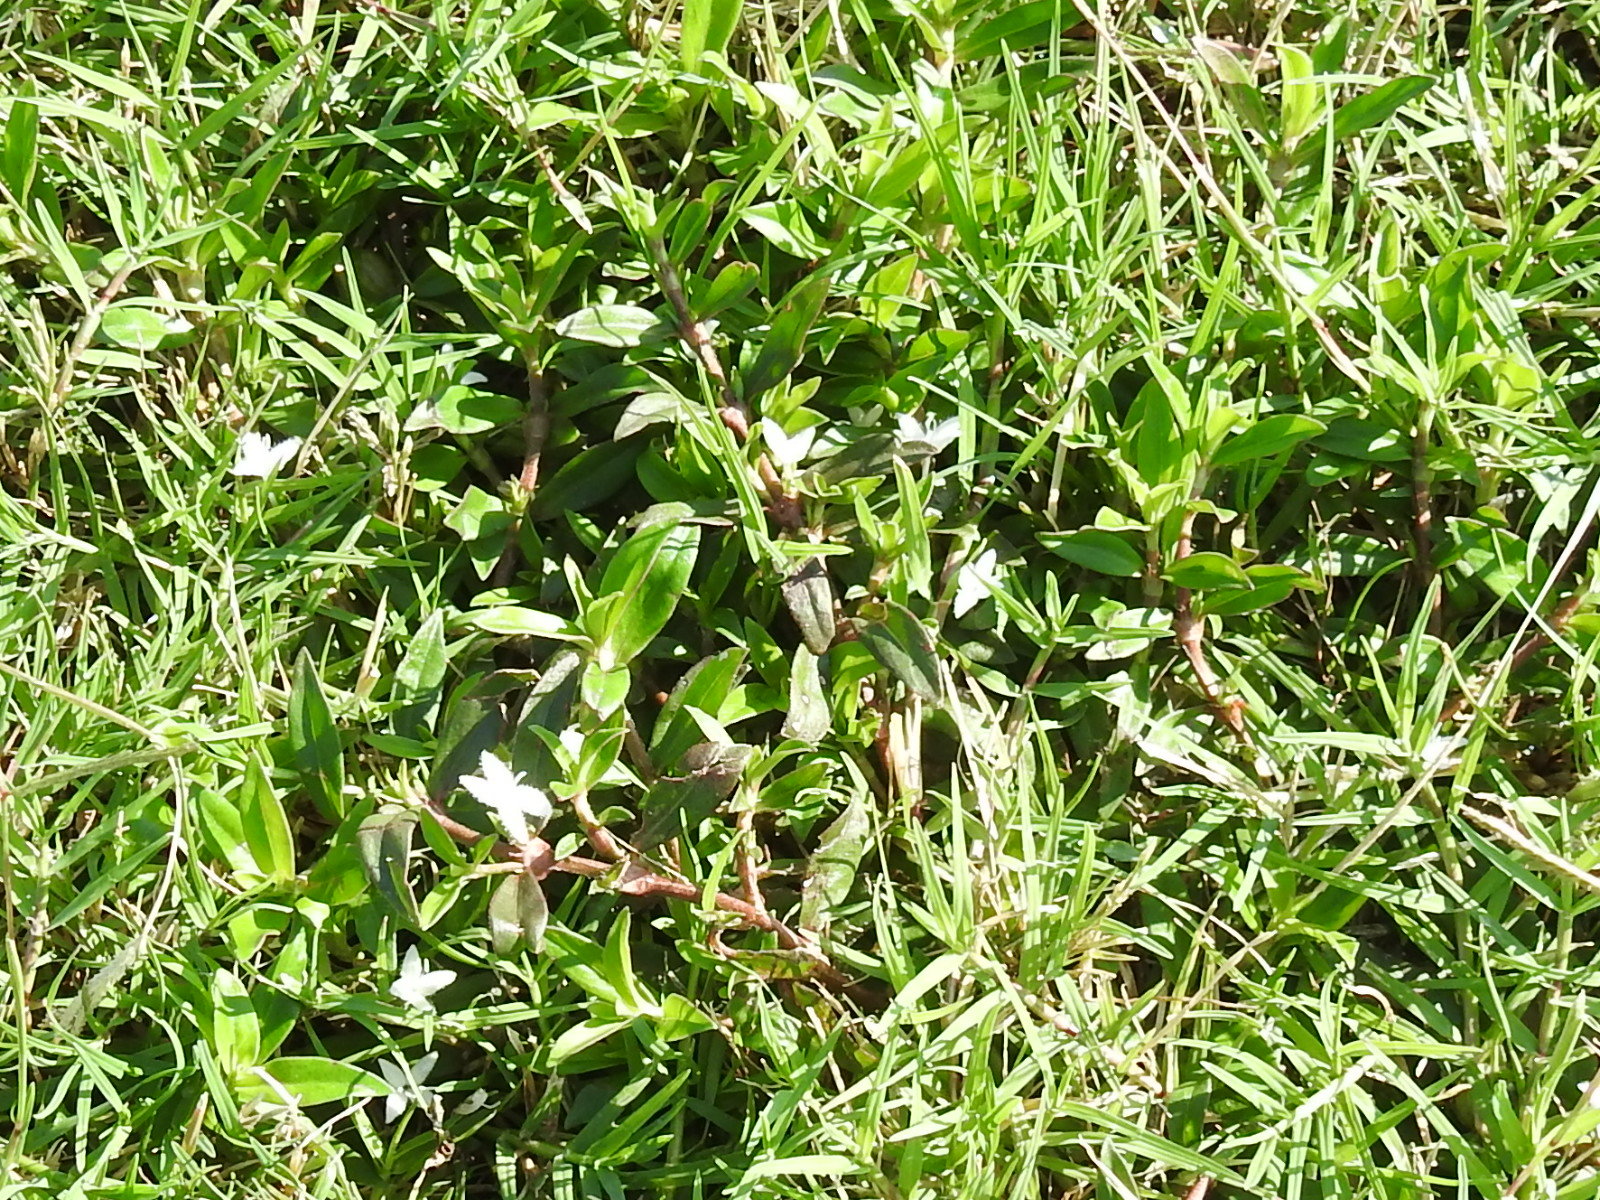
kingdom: Plantae
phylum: Tracheophyta
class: Magnoliopsida
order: Gentianales
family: Rubiaceae
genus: Diodia
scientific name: Diodia virginiana
